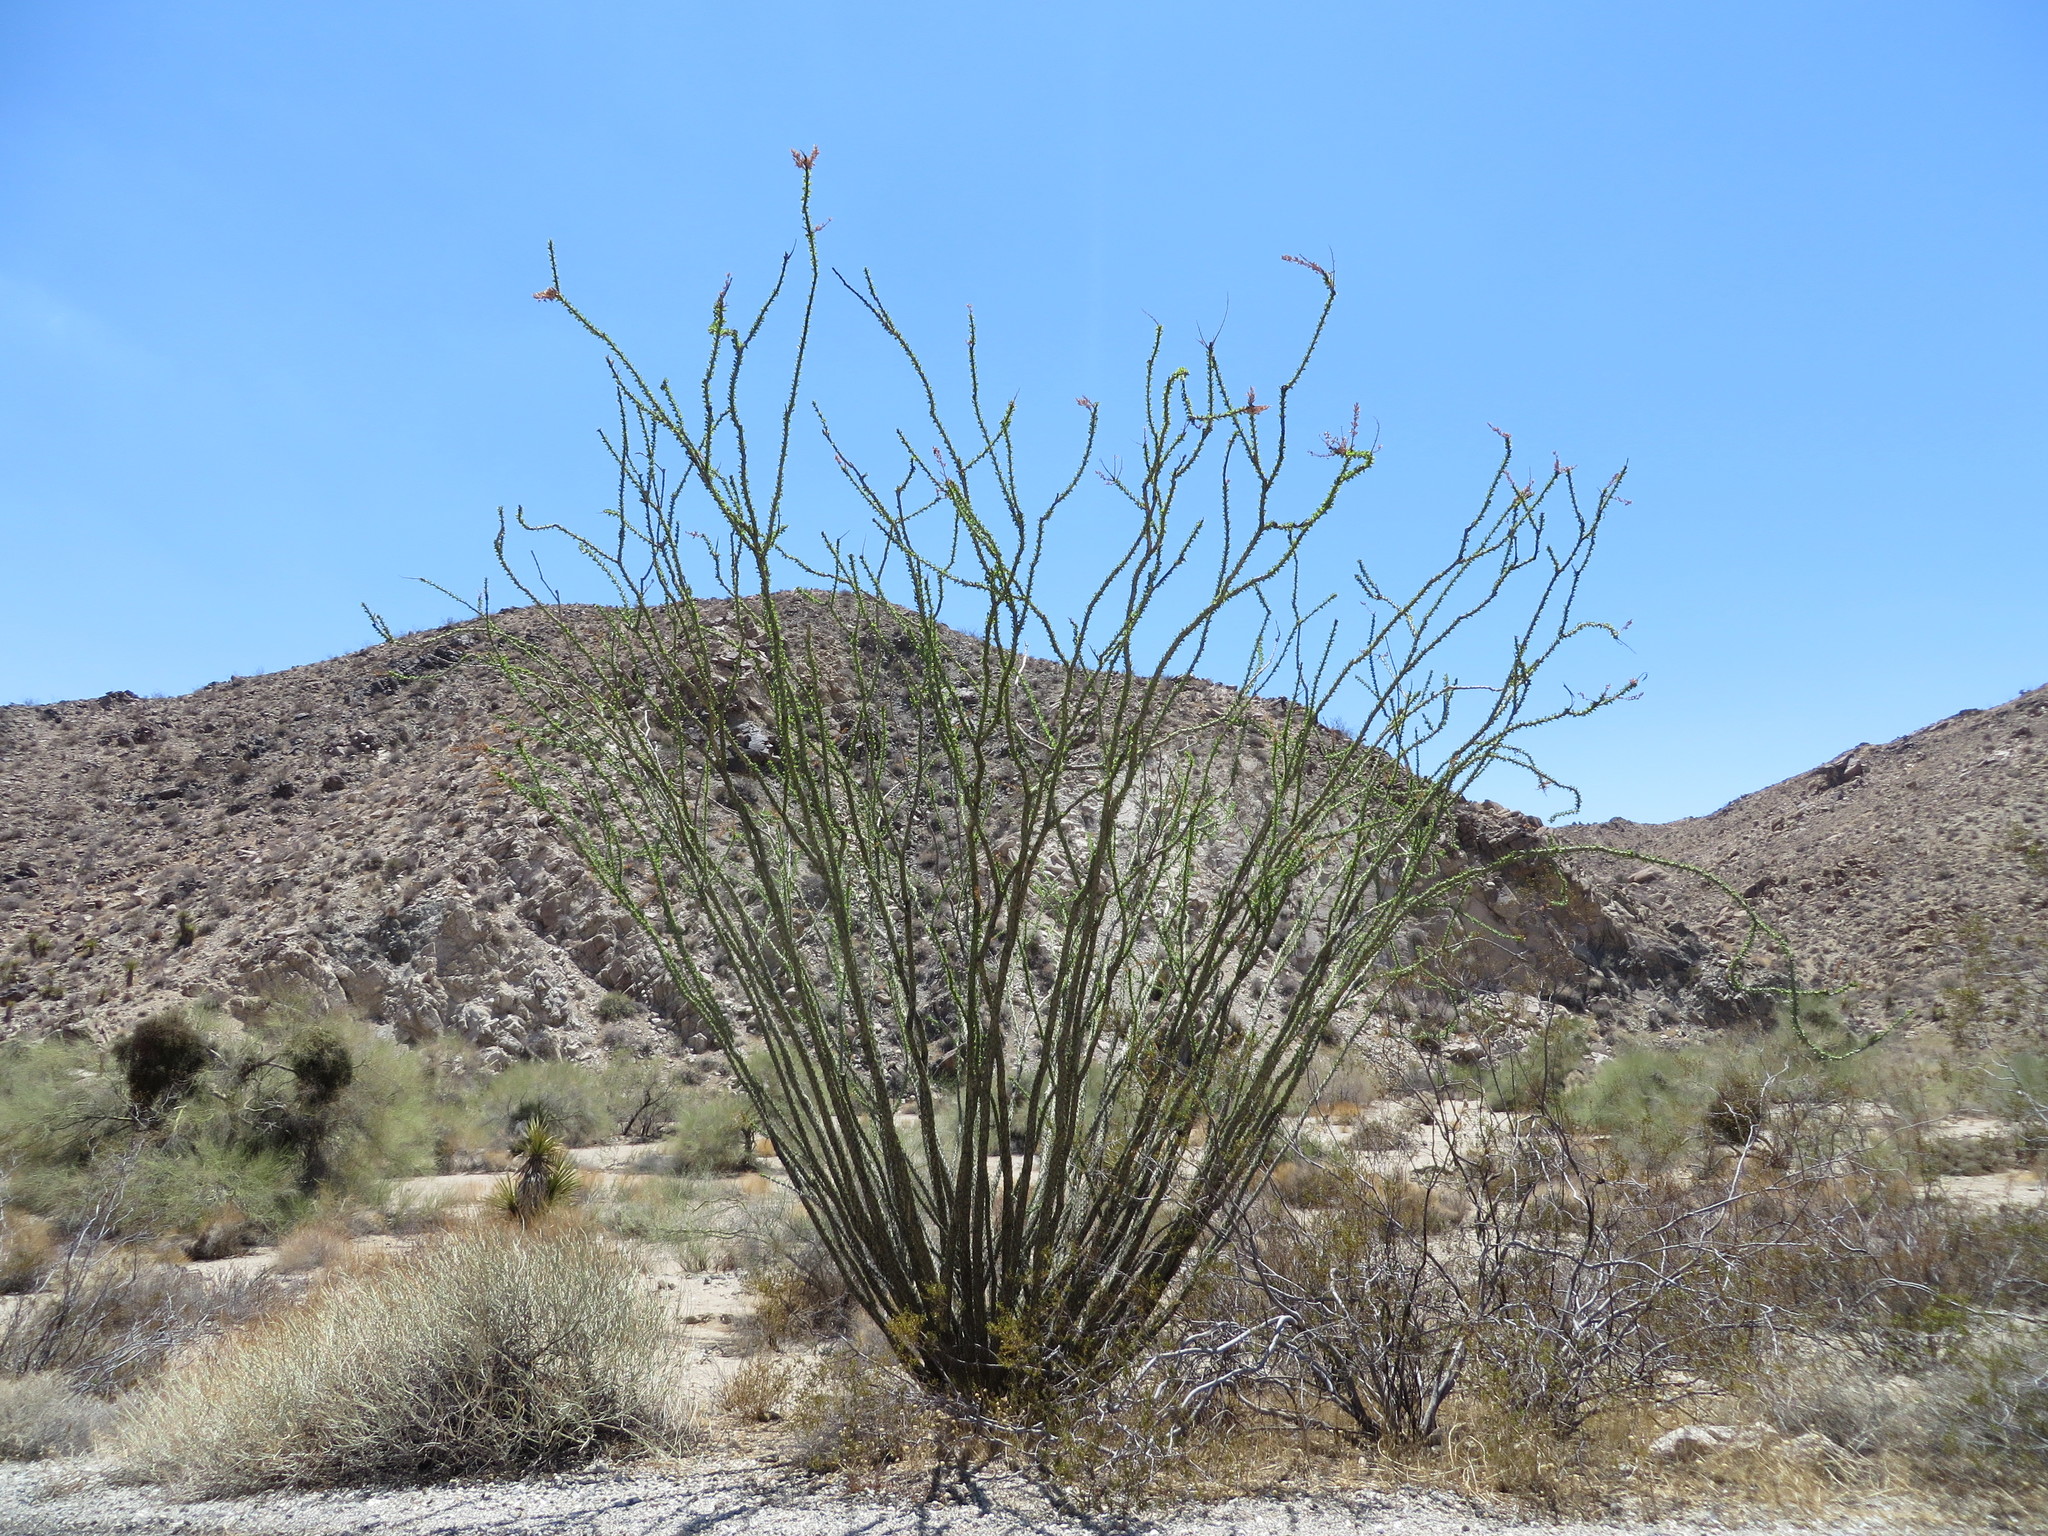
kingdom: Plantae
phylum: Tracheophyta
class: Magnoliopsida
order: Ericales
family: Fouquieriaceae
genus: Fouquieria
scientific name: Fouquieria splendens
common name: Vine-cactus
